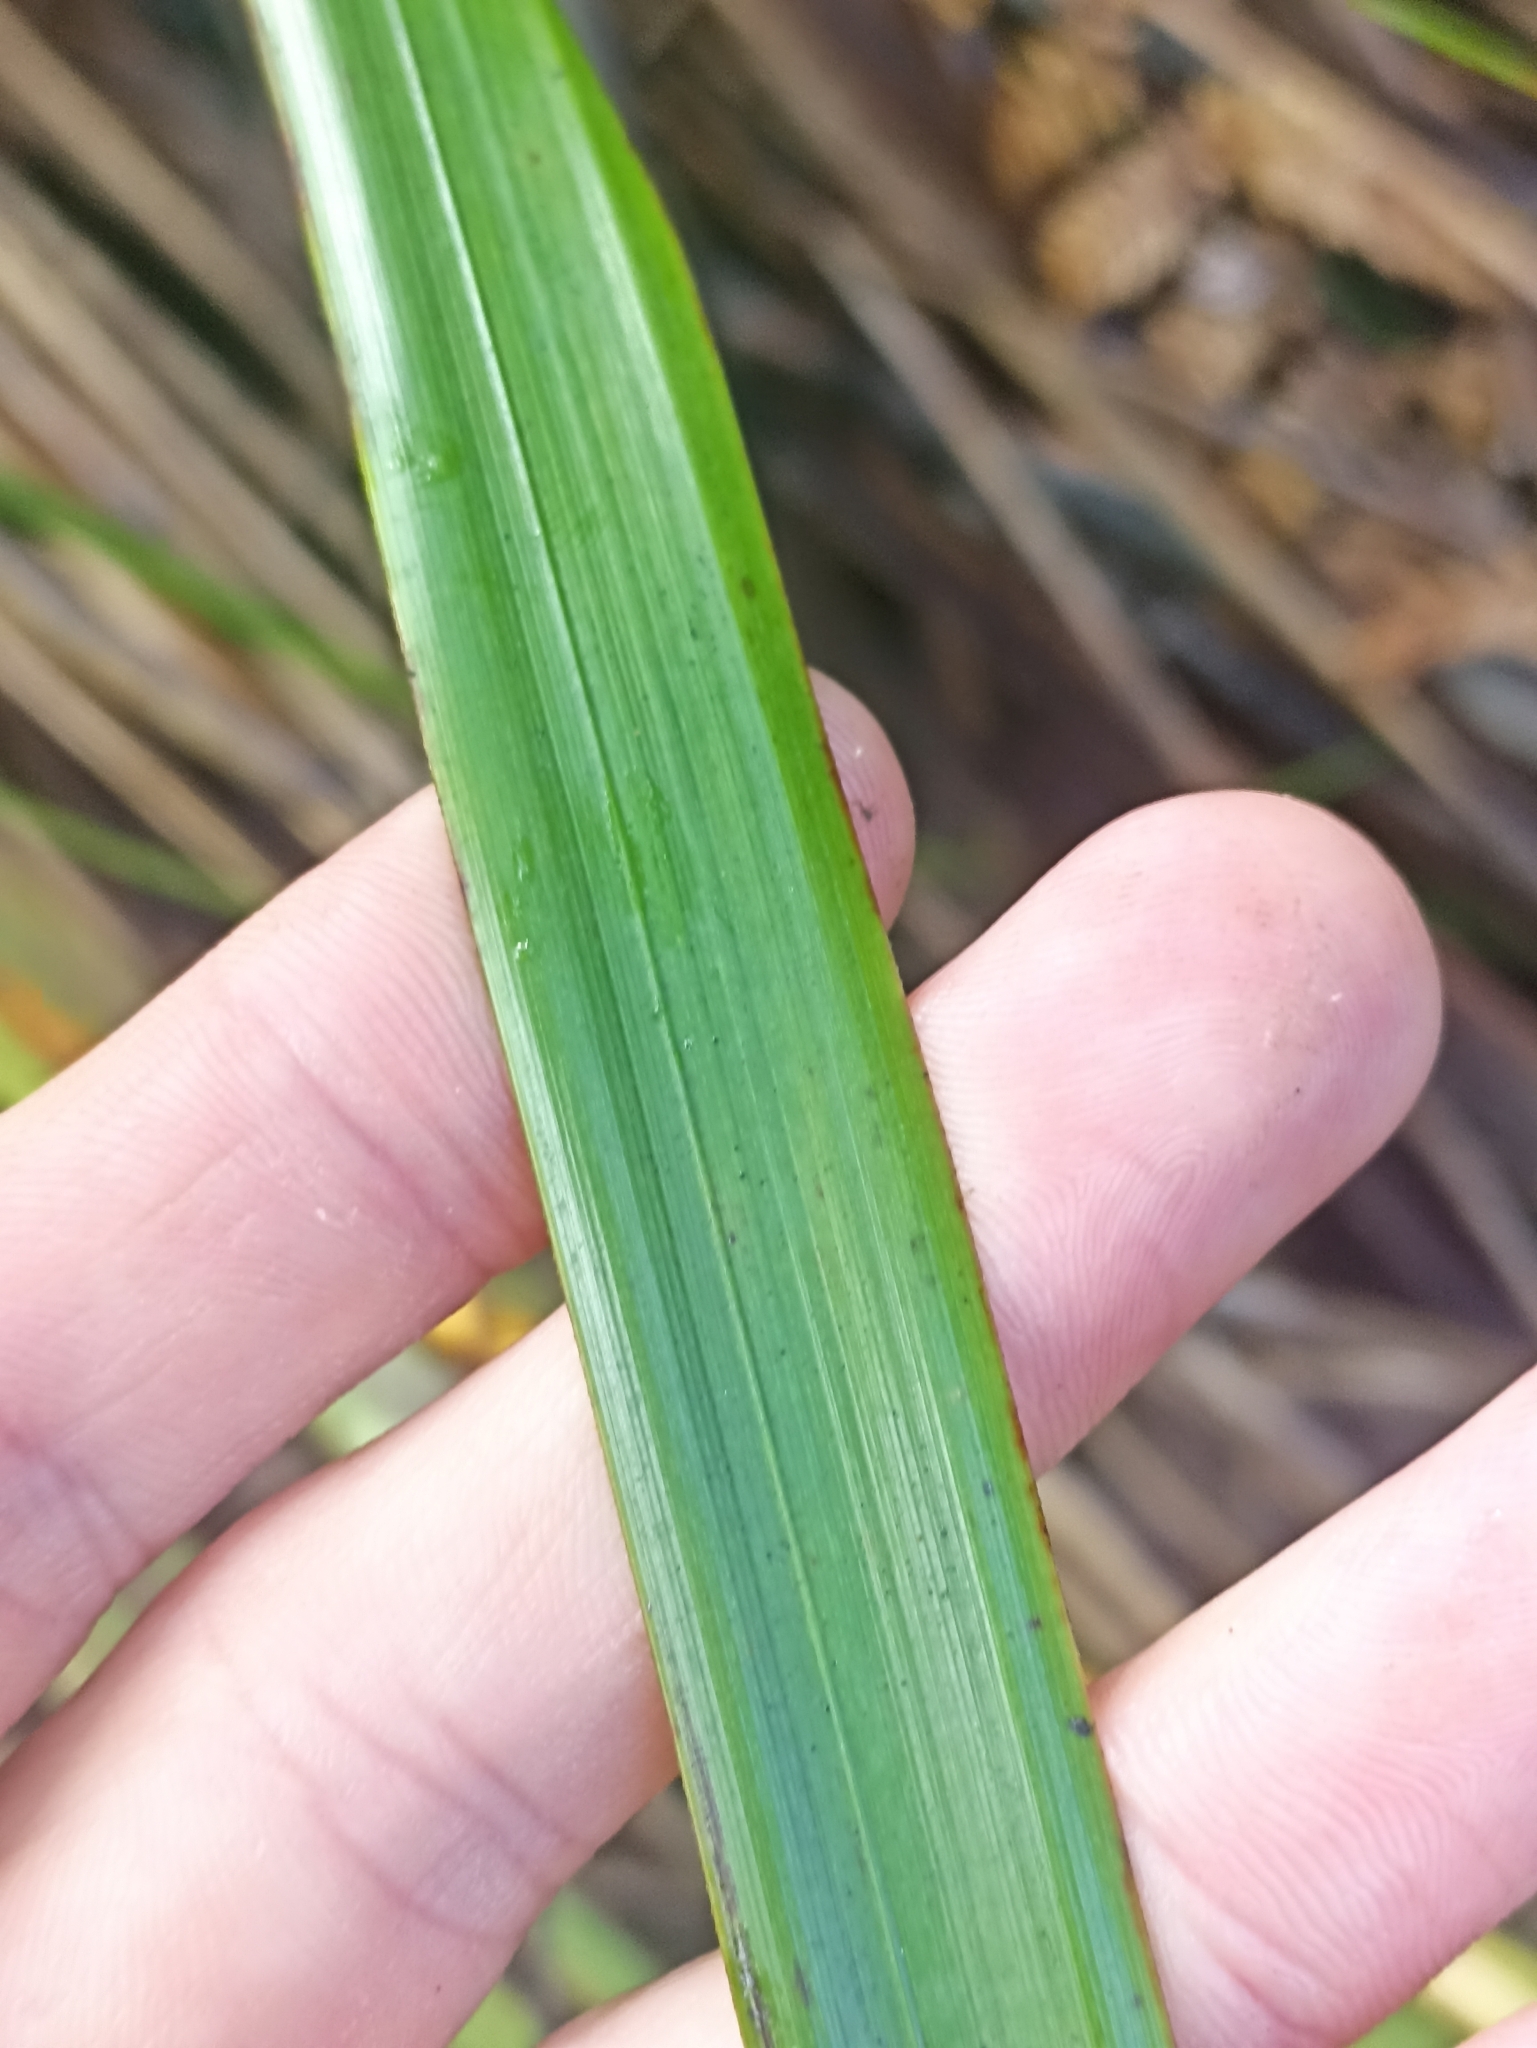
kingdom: Plantae
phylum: Tracheophyta
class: Liliopsida
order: Poales
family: Cyperaceae
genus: Gahnia
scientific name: Gahnia setifolia
